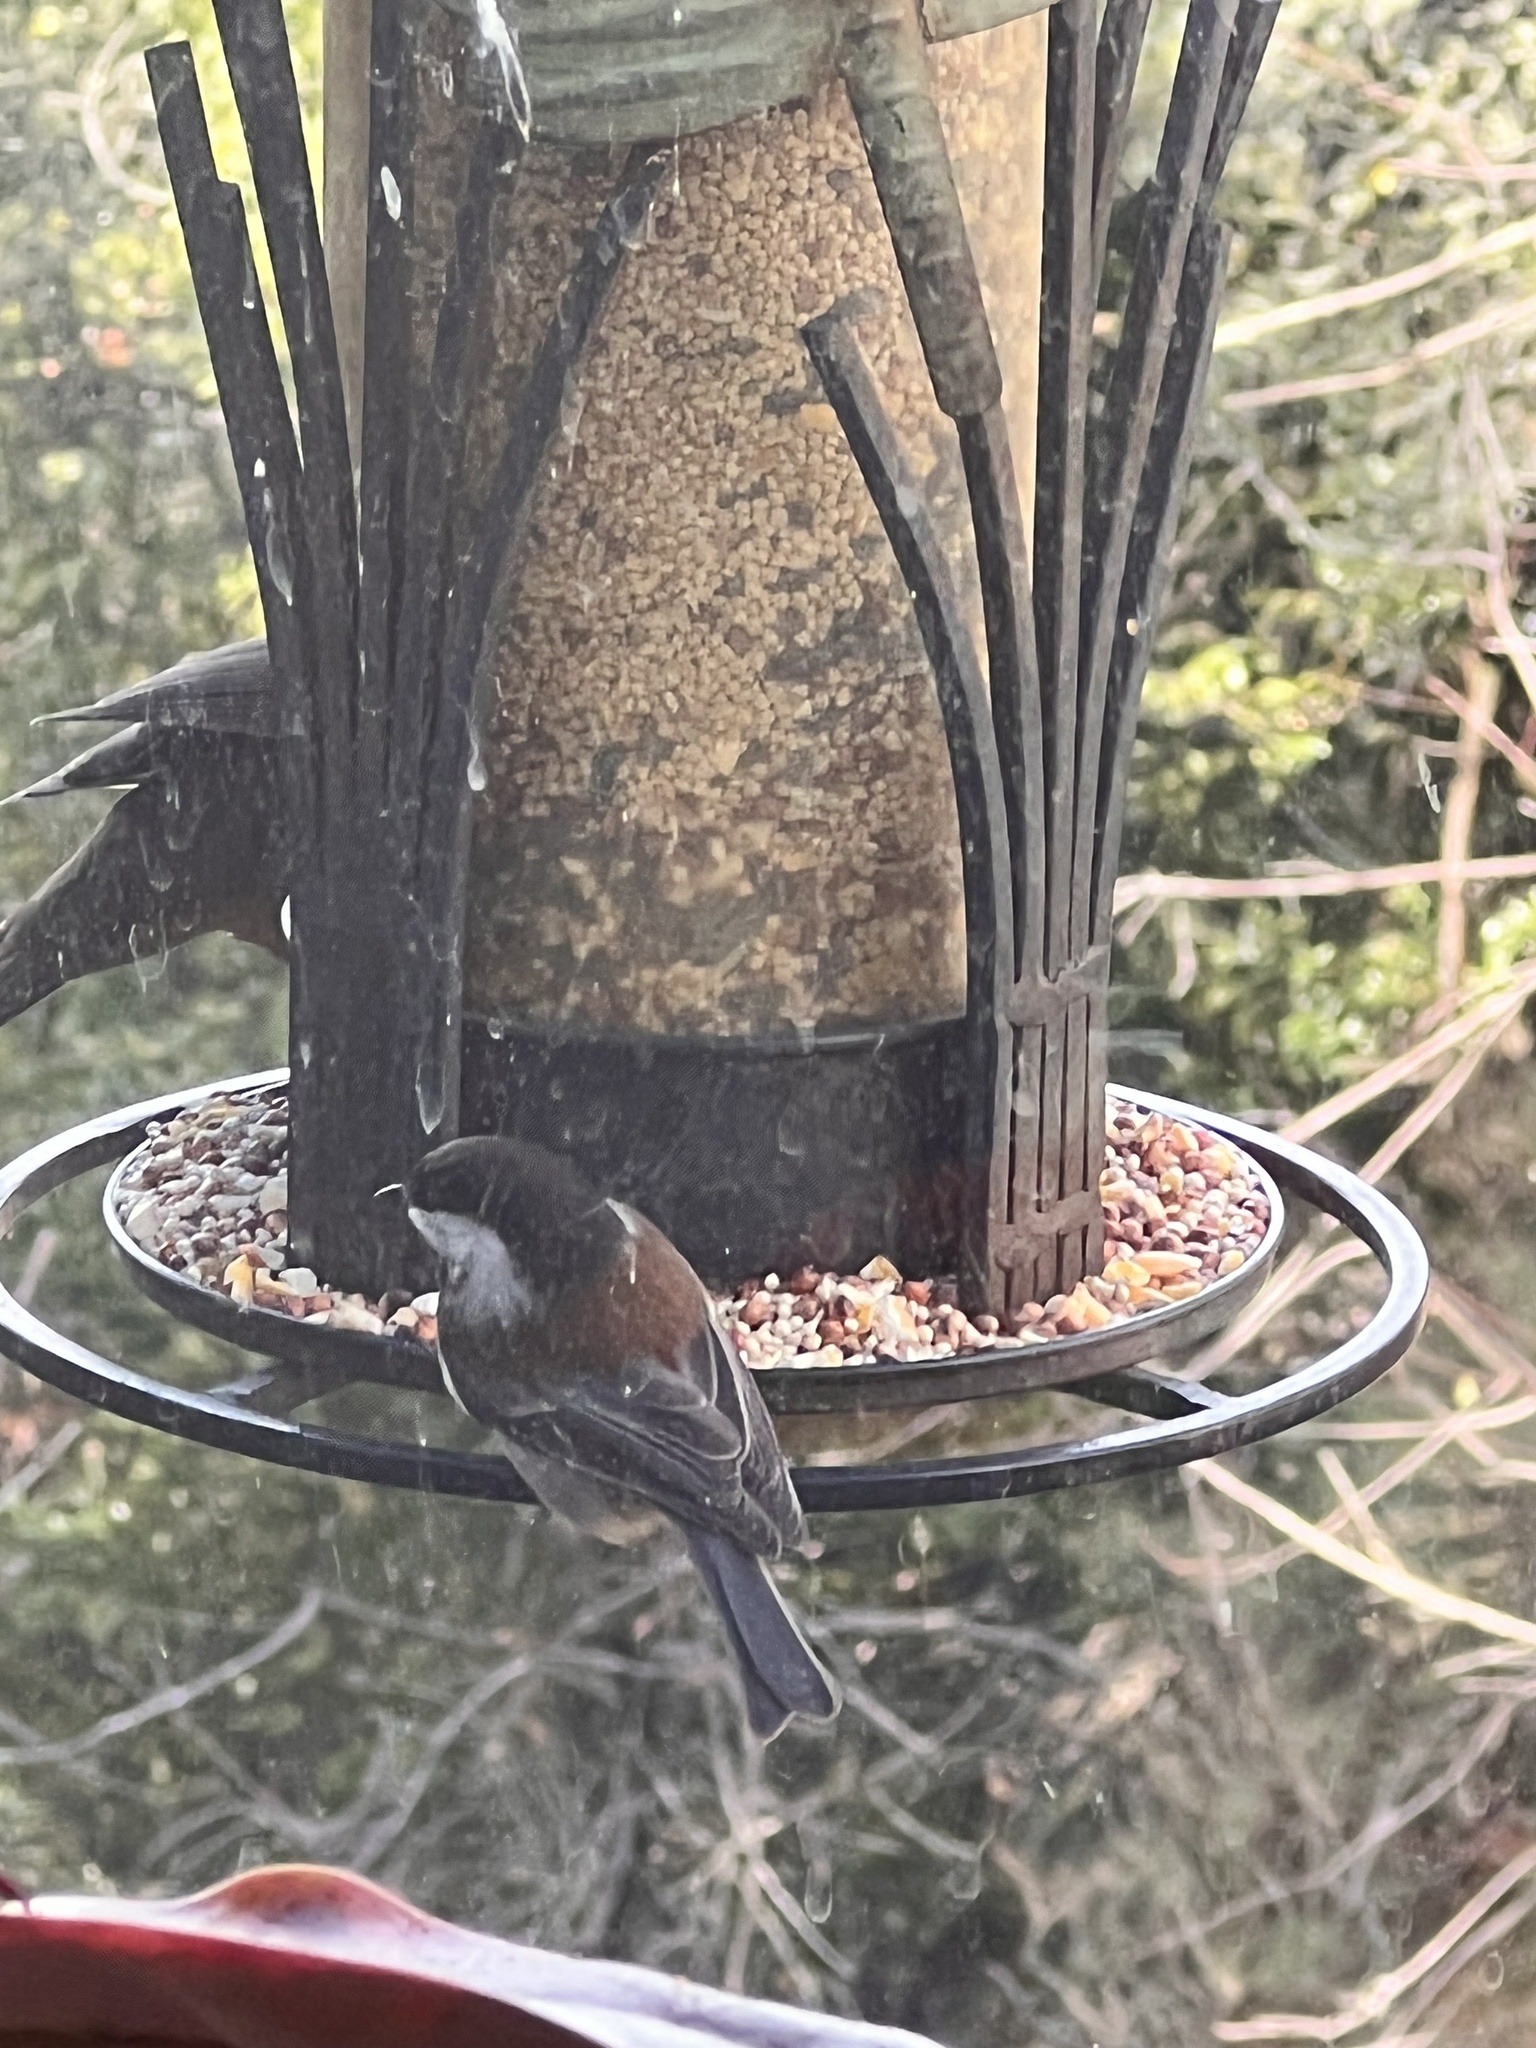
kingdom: Animalia
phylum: Chordata
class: Aves
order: Passeriformes
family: Paridae
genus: Poecile
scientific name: Poecile rufescens
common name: Chestnut-backed chickadee
